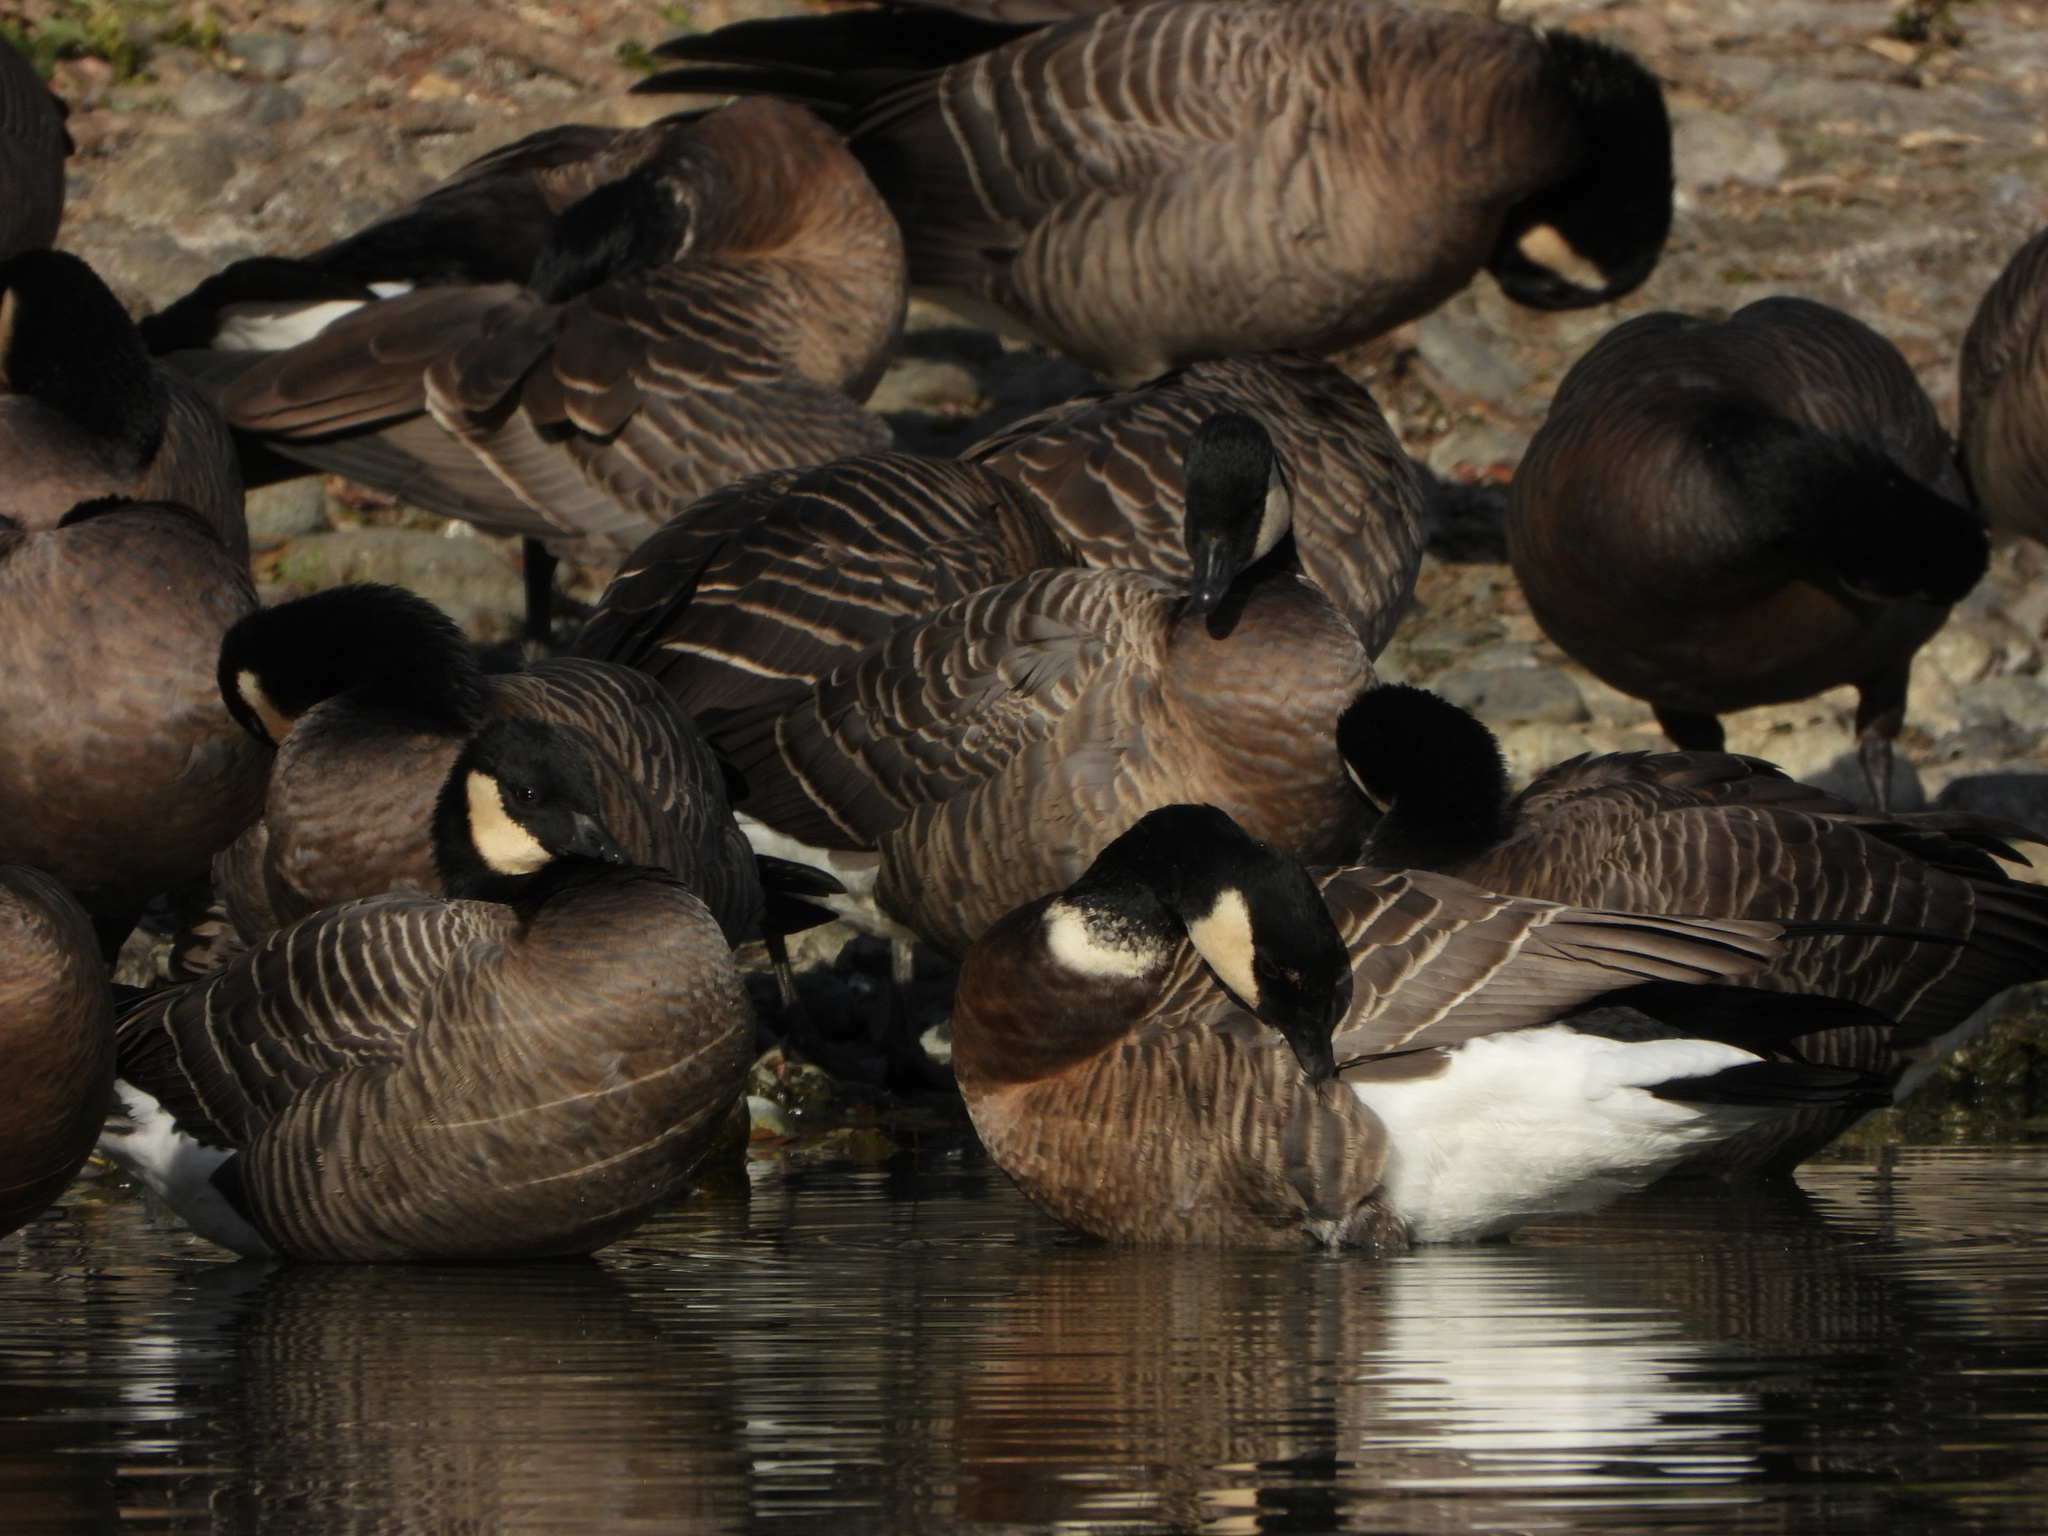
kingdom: Animalia
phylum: Chordata
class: Aves
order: Anseriformes
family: Anatidae
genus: Branta
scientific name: Branta hutchinsii
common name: Cackling goose
